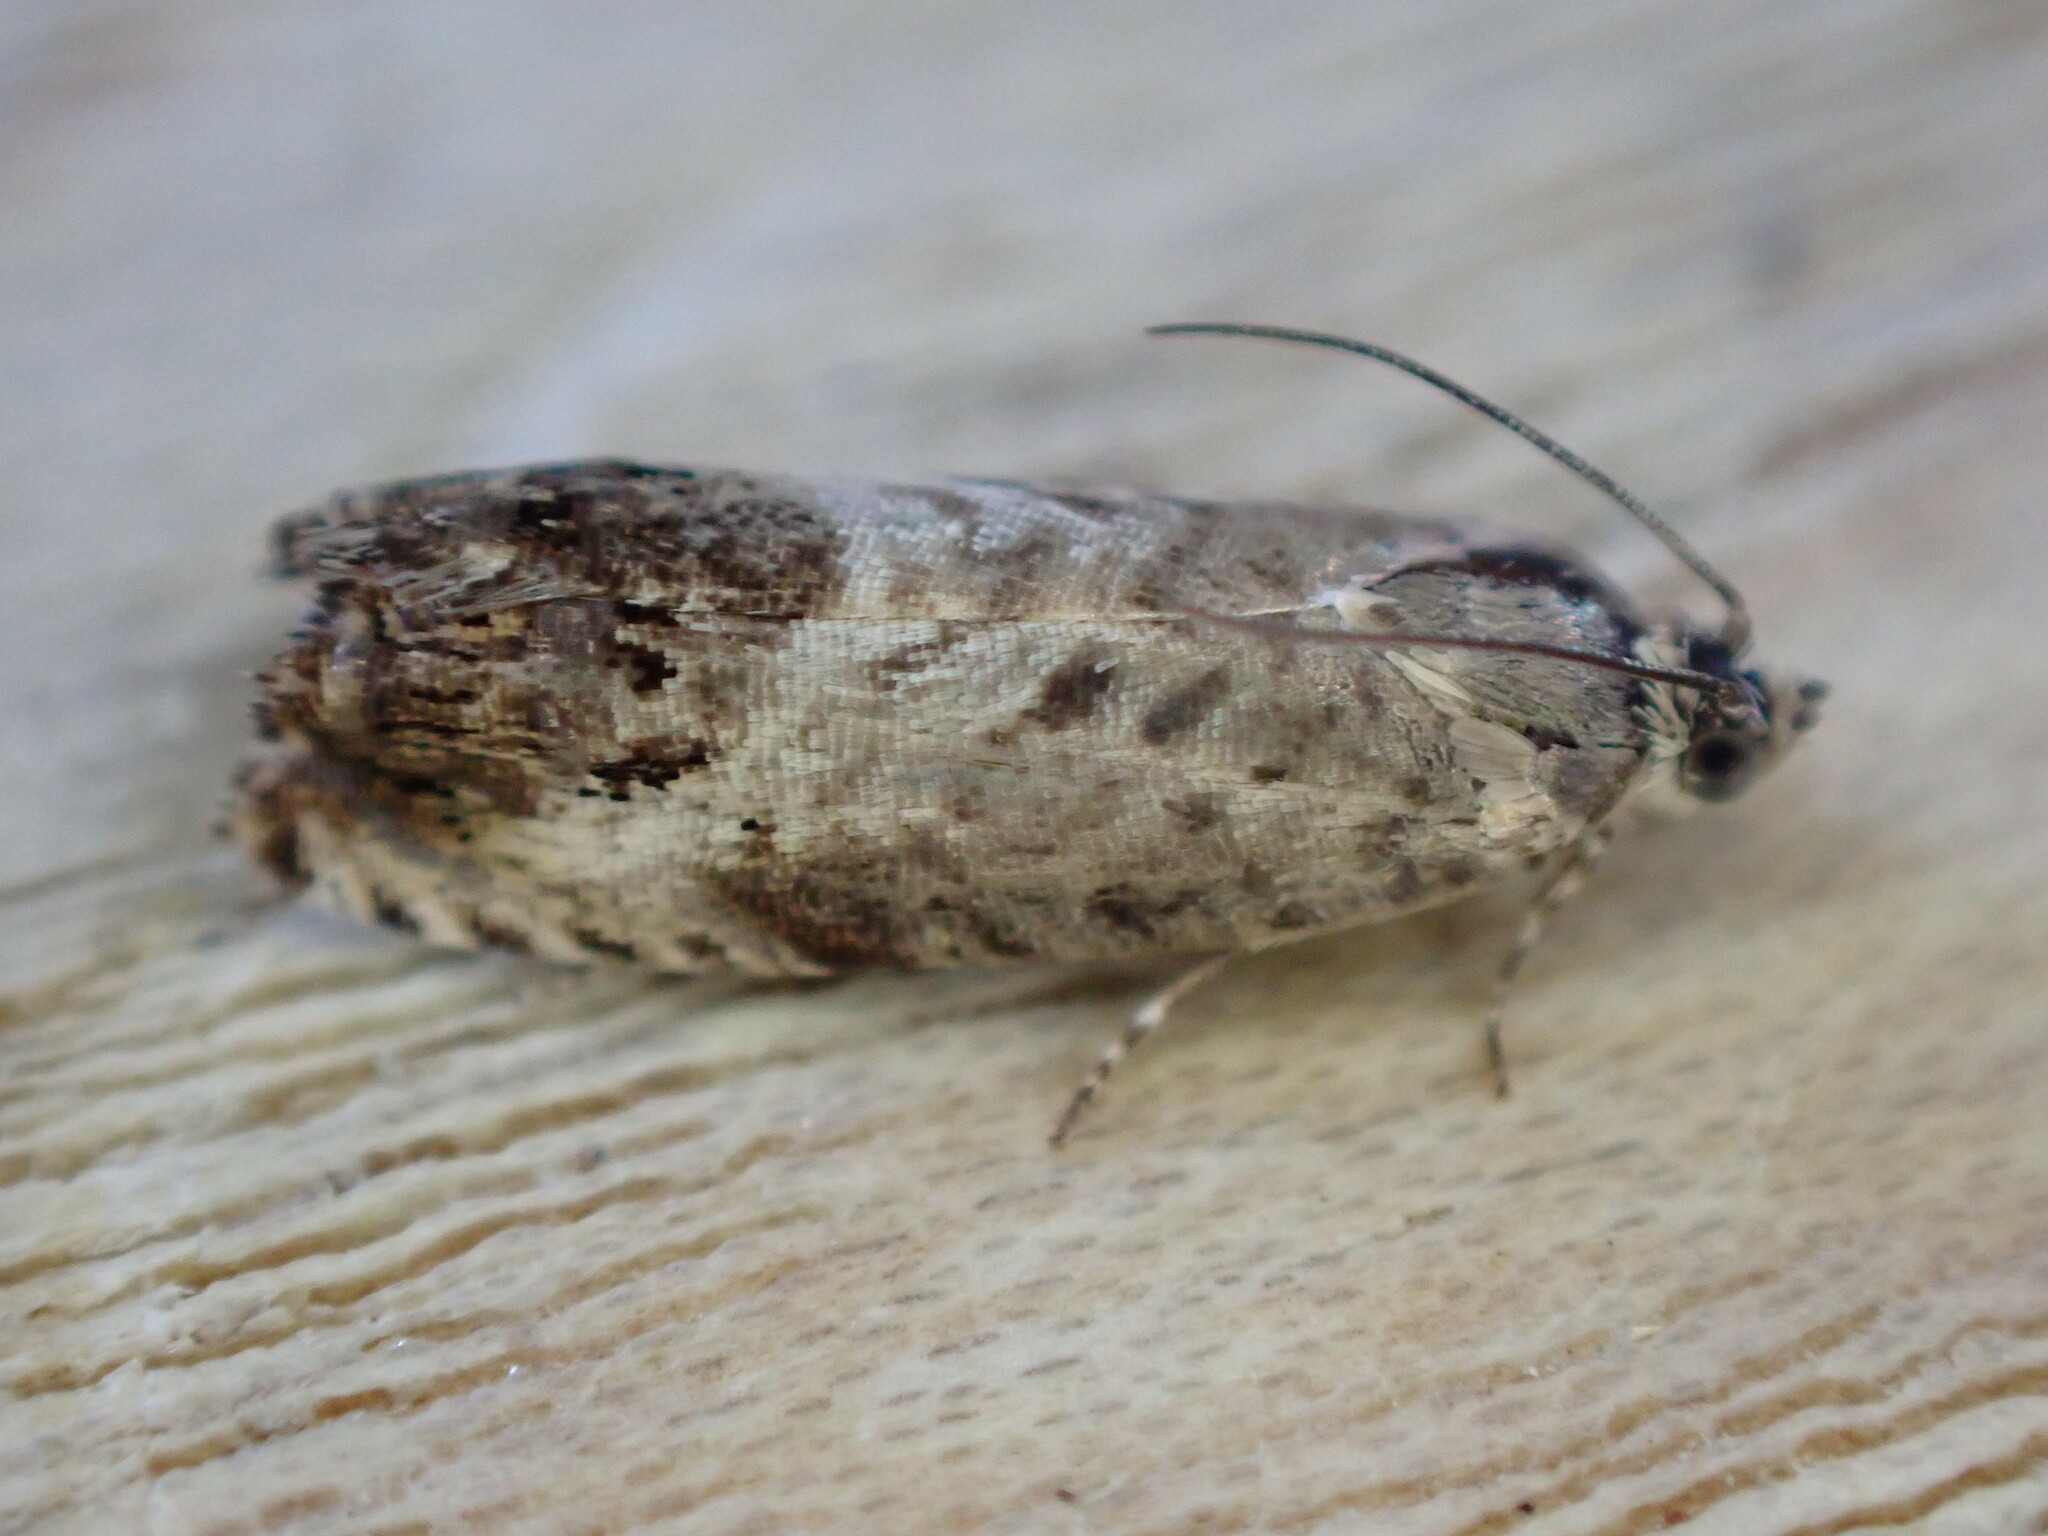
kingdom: Animalia
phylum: Arthropoda
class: Insecta
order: Lepidoptera
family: Tortricidae
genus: Pammene
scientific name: Pammene fasciana
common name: Acorn piercer
